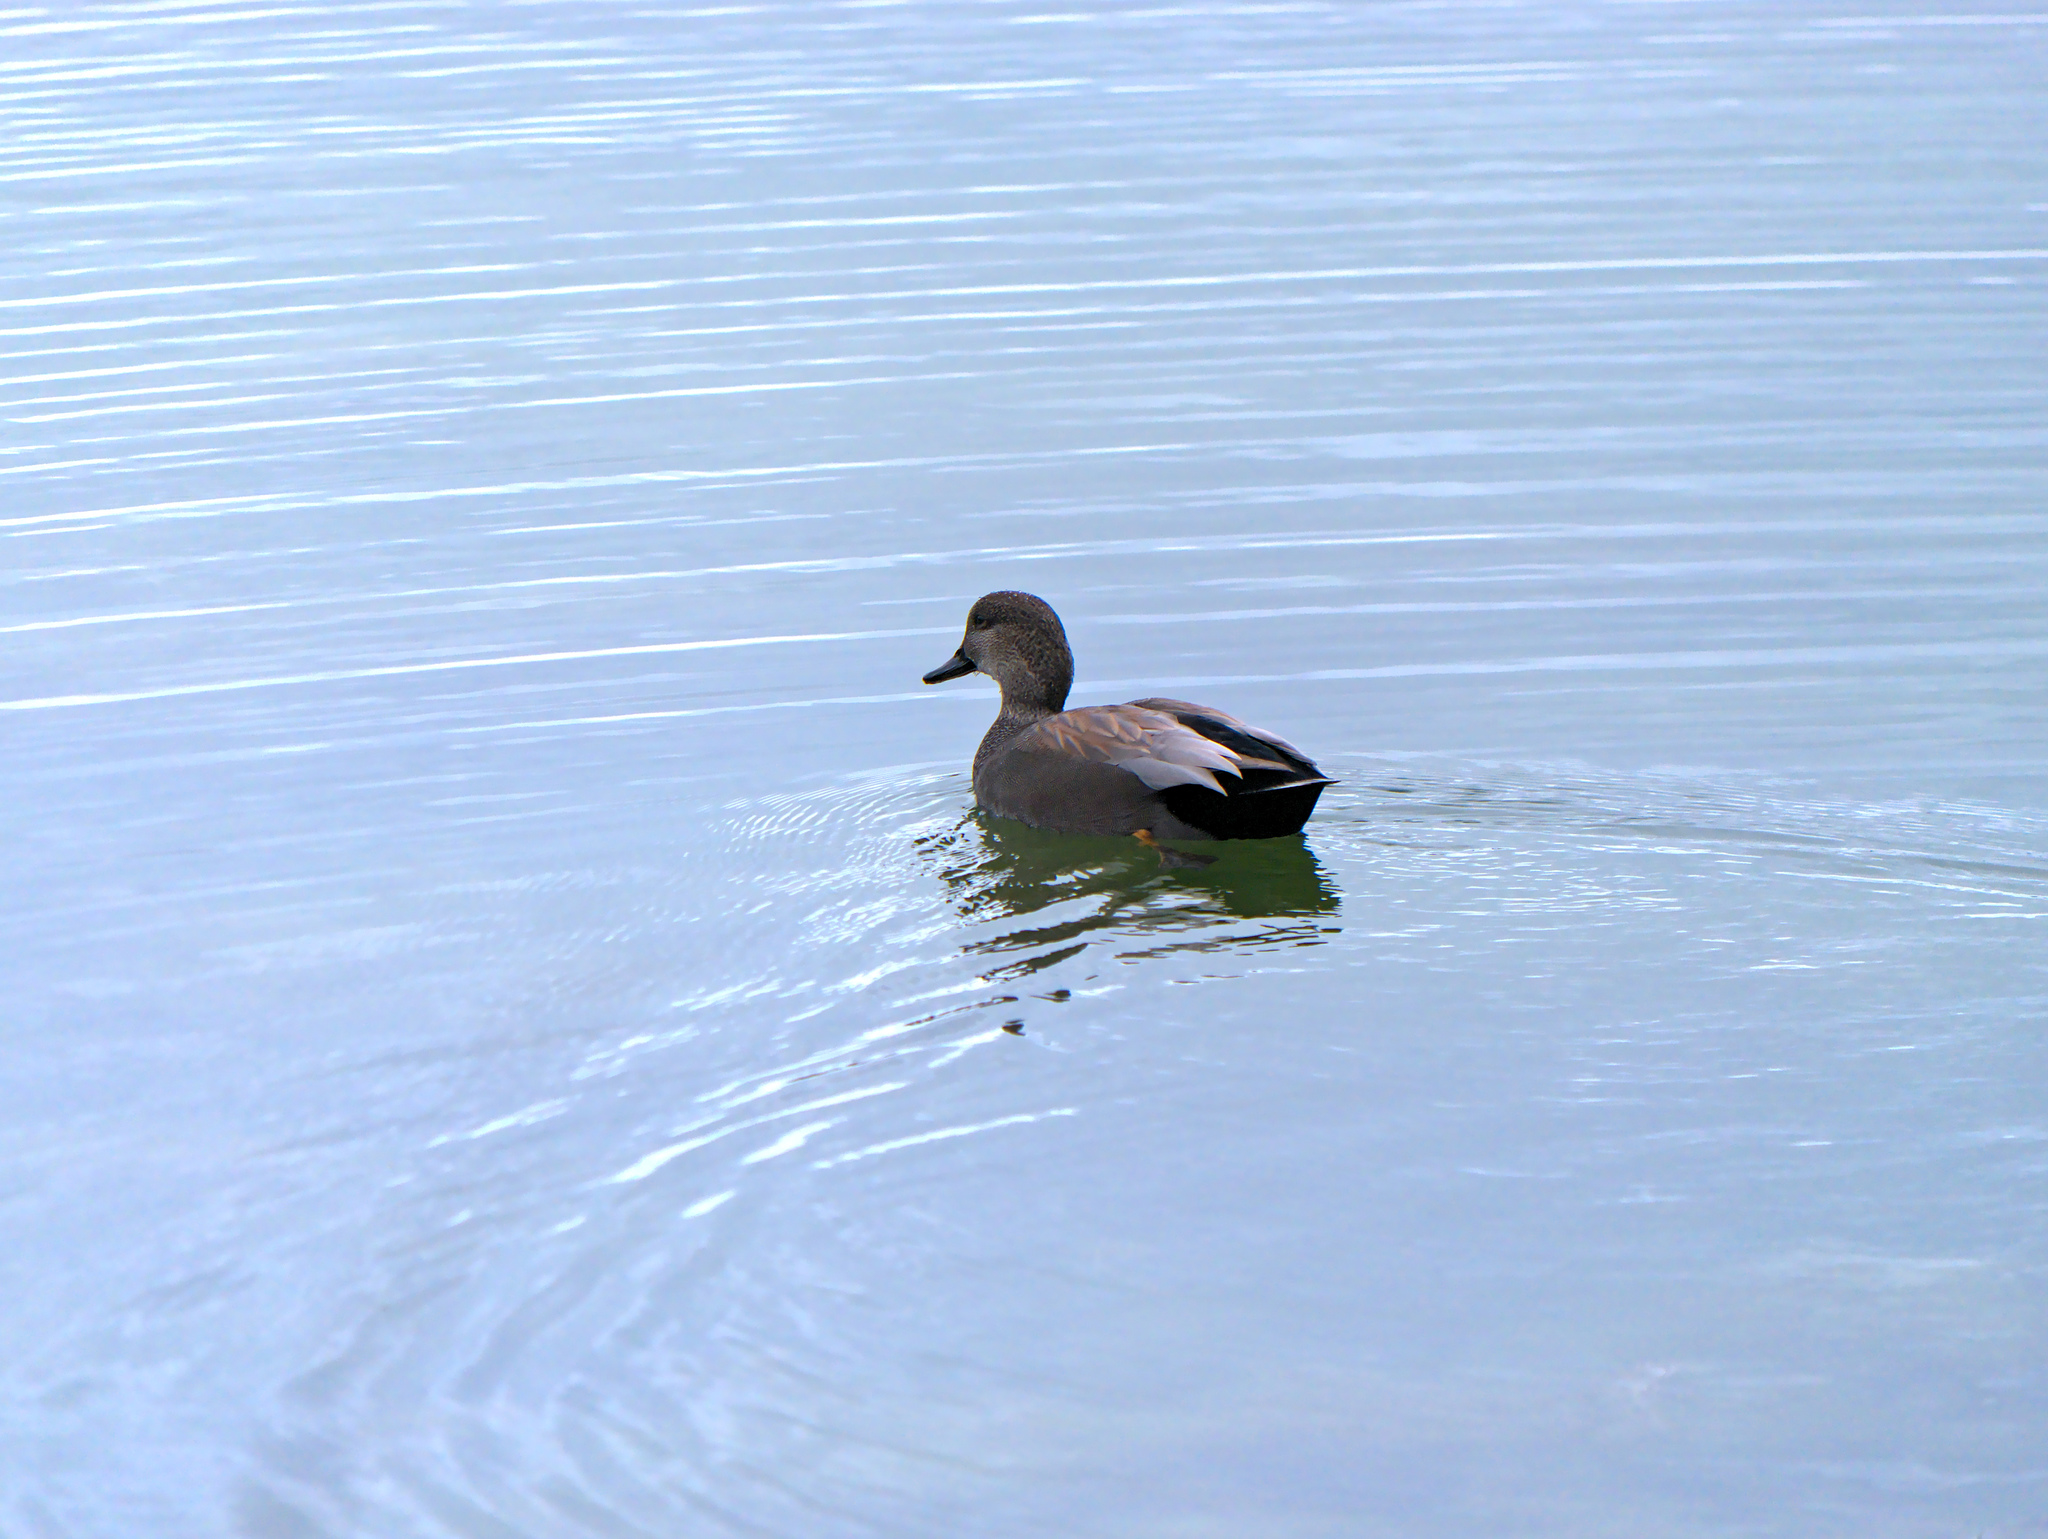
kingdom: Animalia
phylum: Chordata
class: Aves
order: Anseriformes
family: Anatidae
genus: Mareca
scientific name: Mareca strepera
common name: Gadwall
